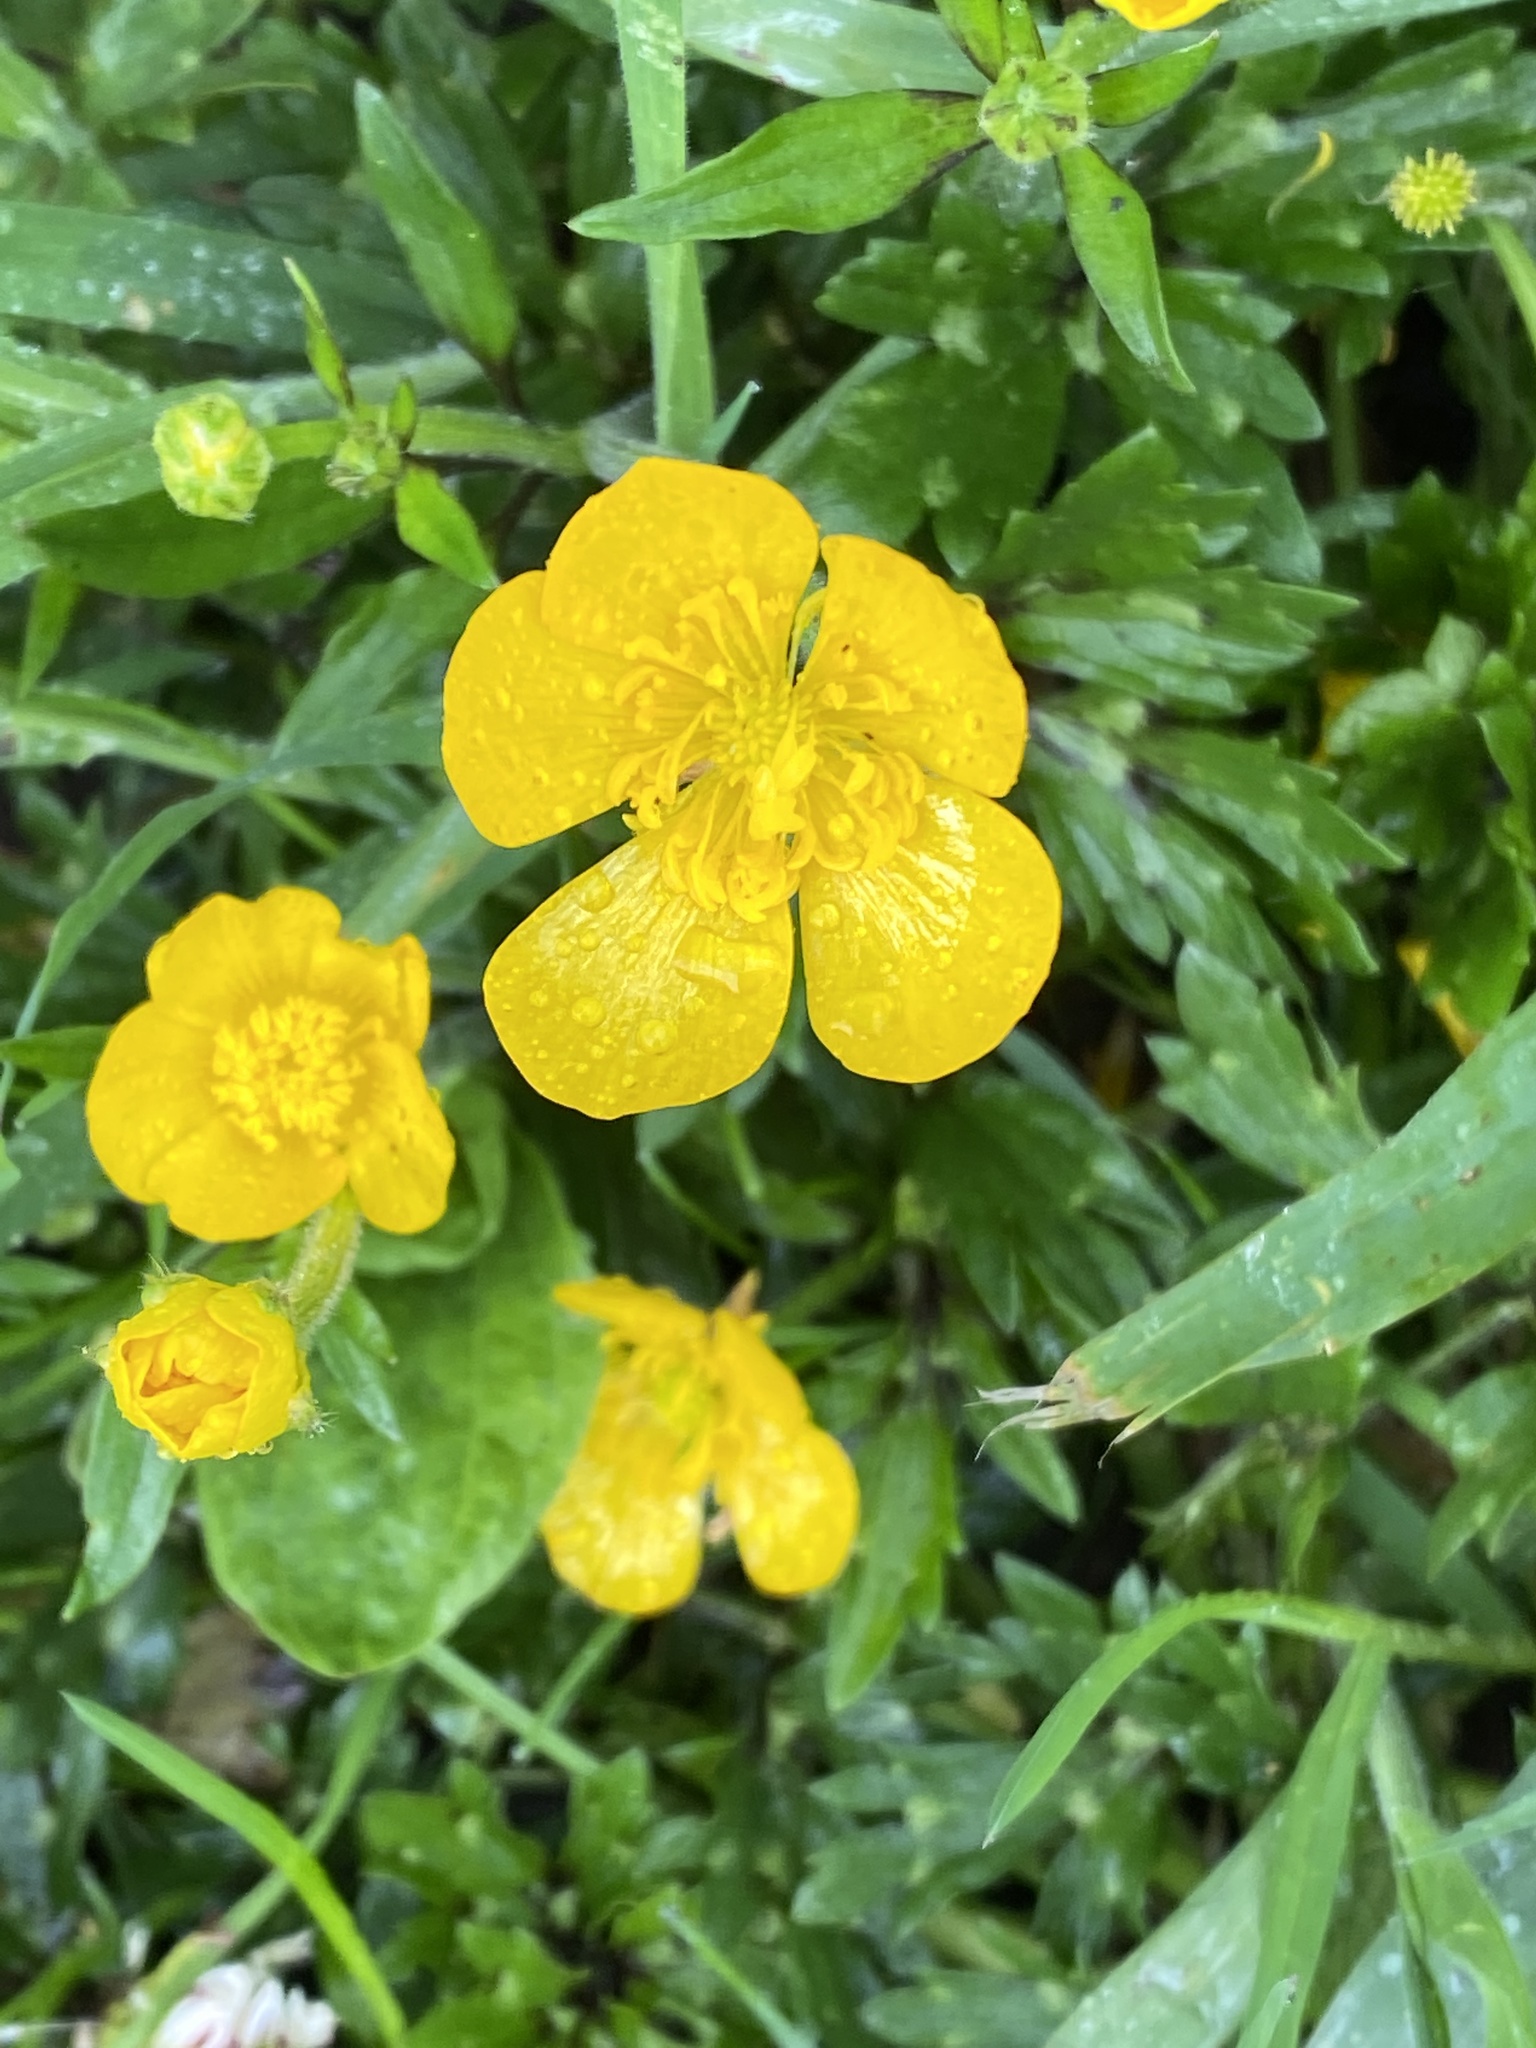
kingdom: Plantae
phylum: Tracheophyta
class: Magnoliopsida
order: Ranunculales
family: Ranunculaceae
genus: Ranunculus
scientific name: Ranunculus repens
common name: Creeping buttercup
